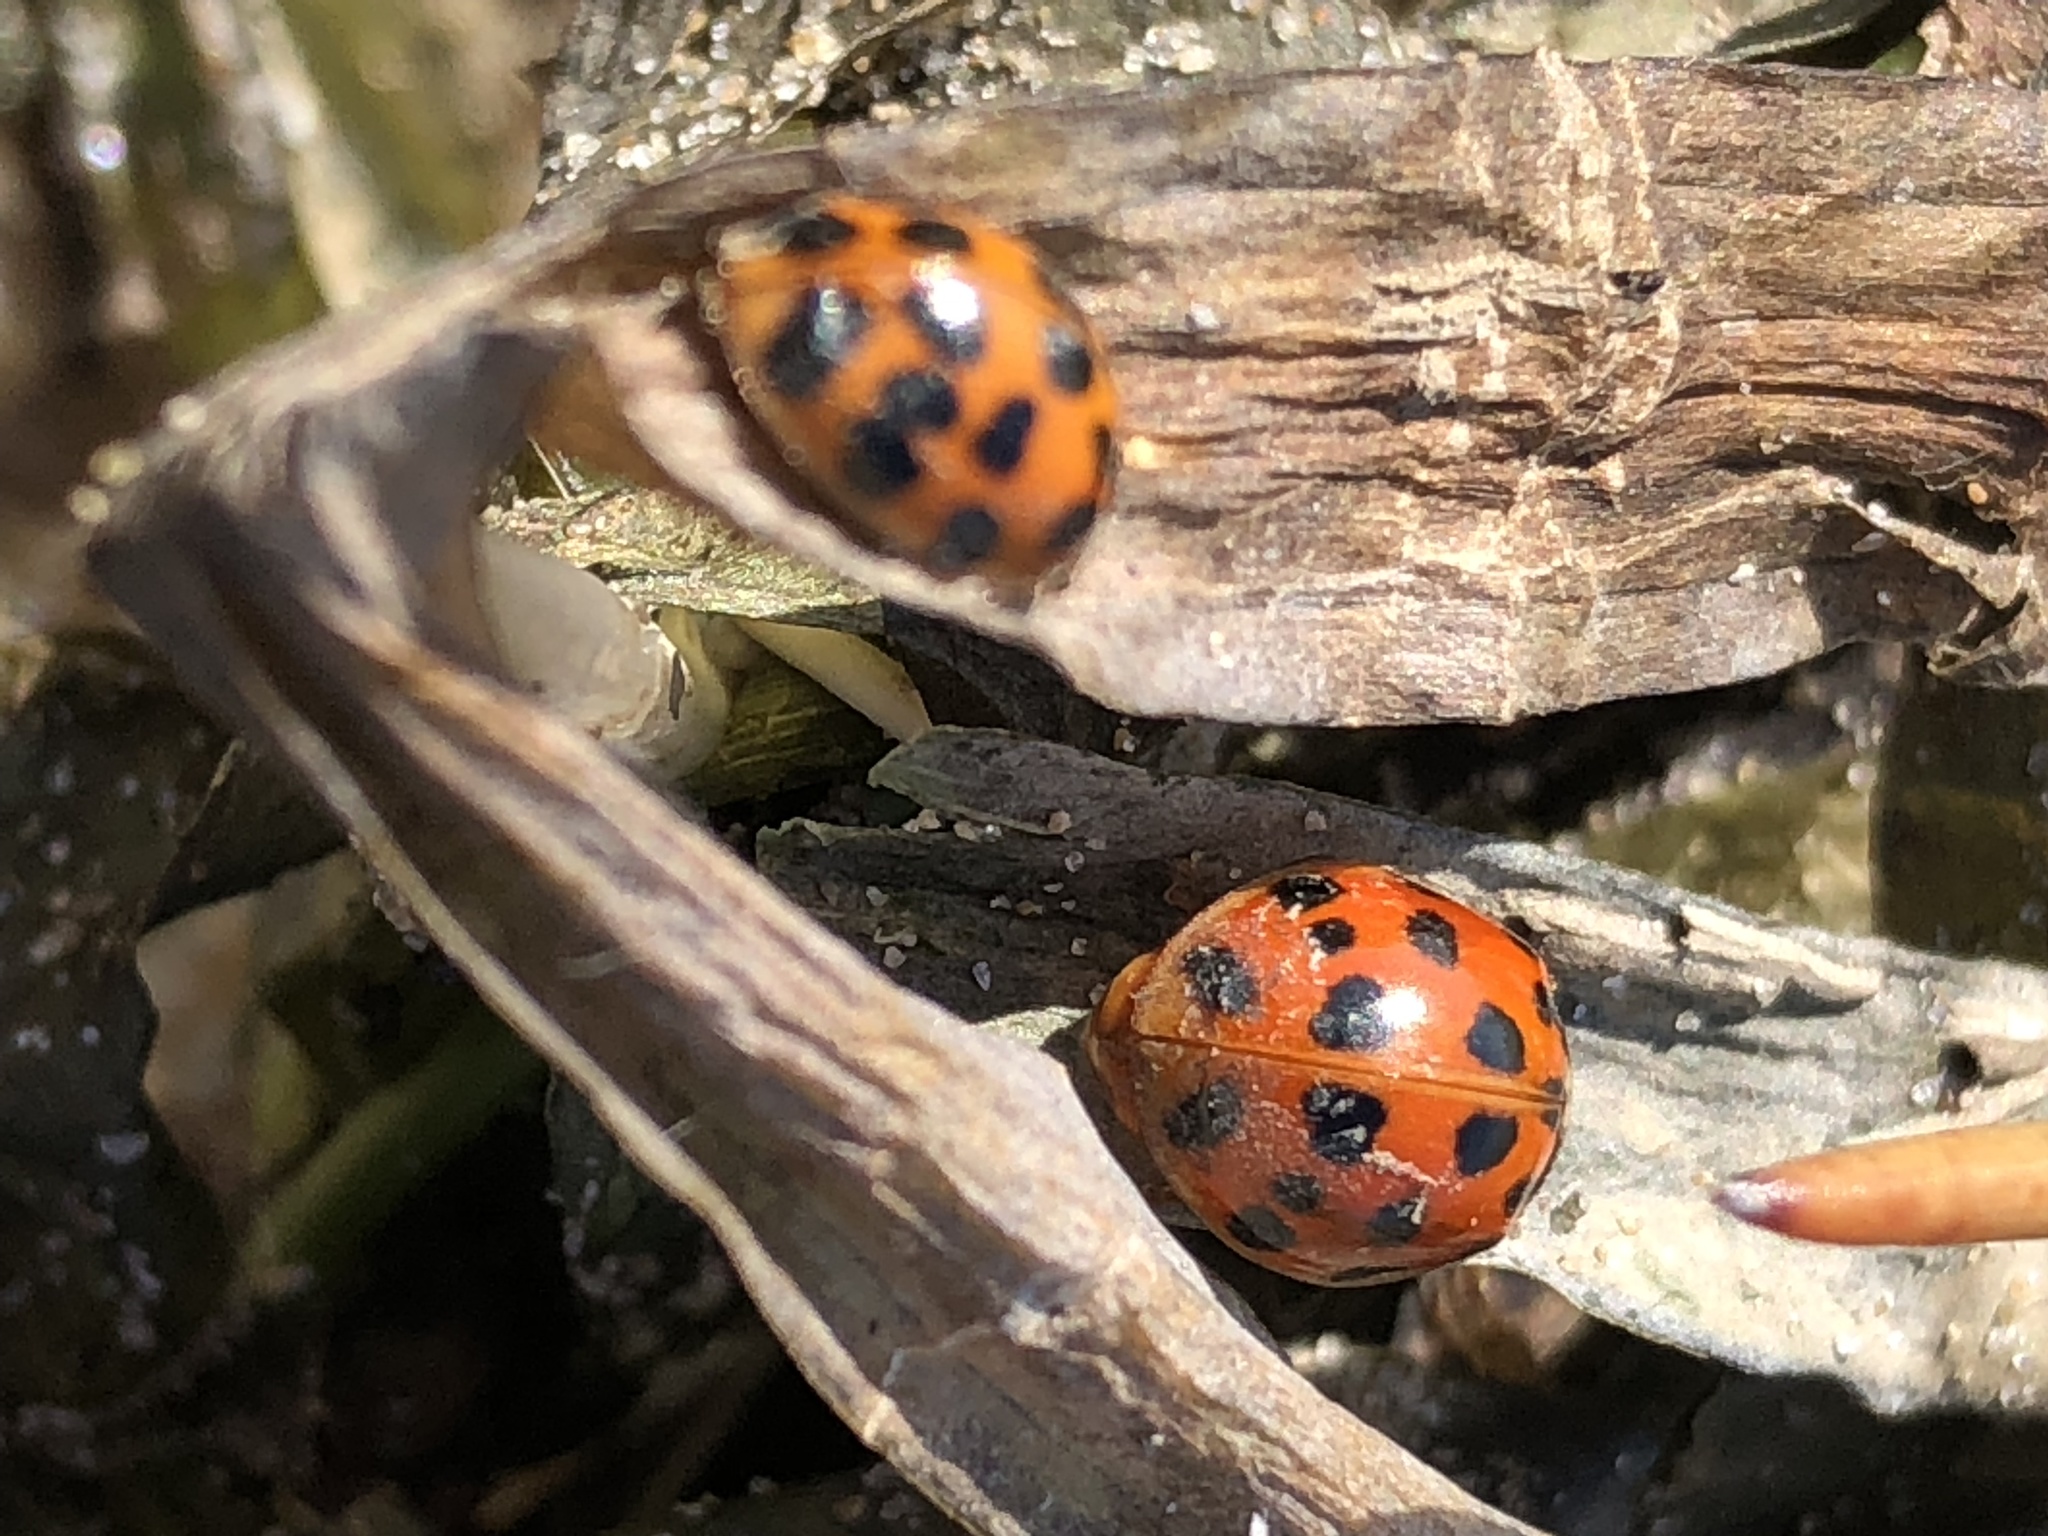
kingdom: Animalia
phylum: Arthropoda
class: Insecta
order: Coleoptera
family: Coccinellidae
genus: Harmonia
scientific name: Harmonia axyridis
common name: Harlequin ladybird
